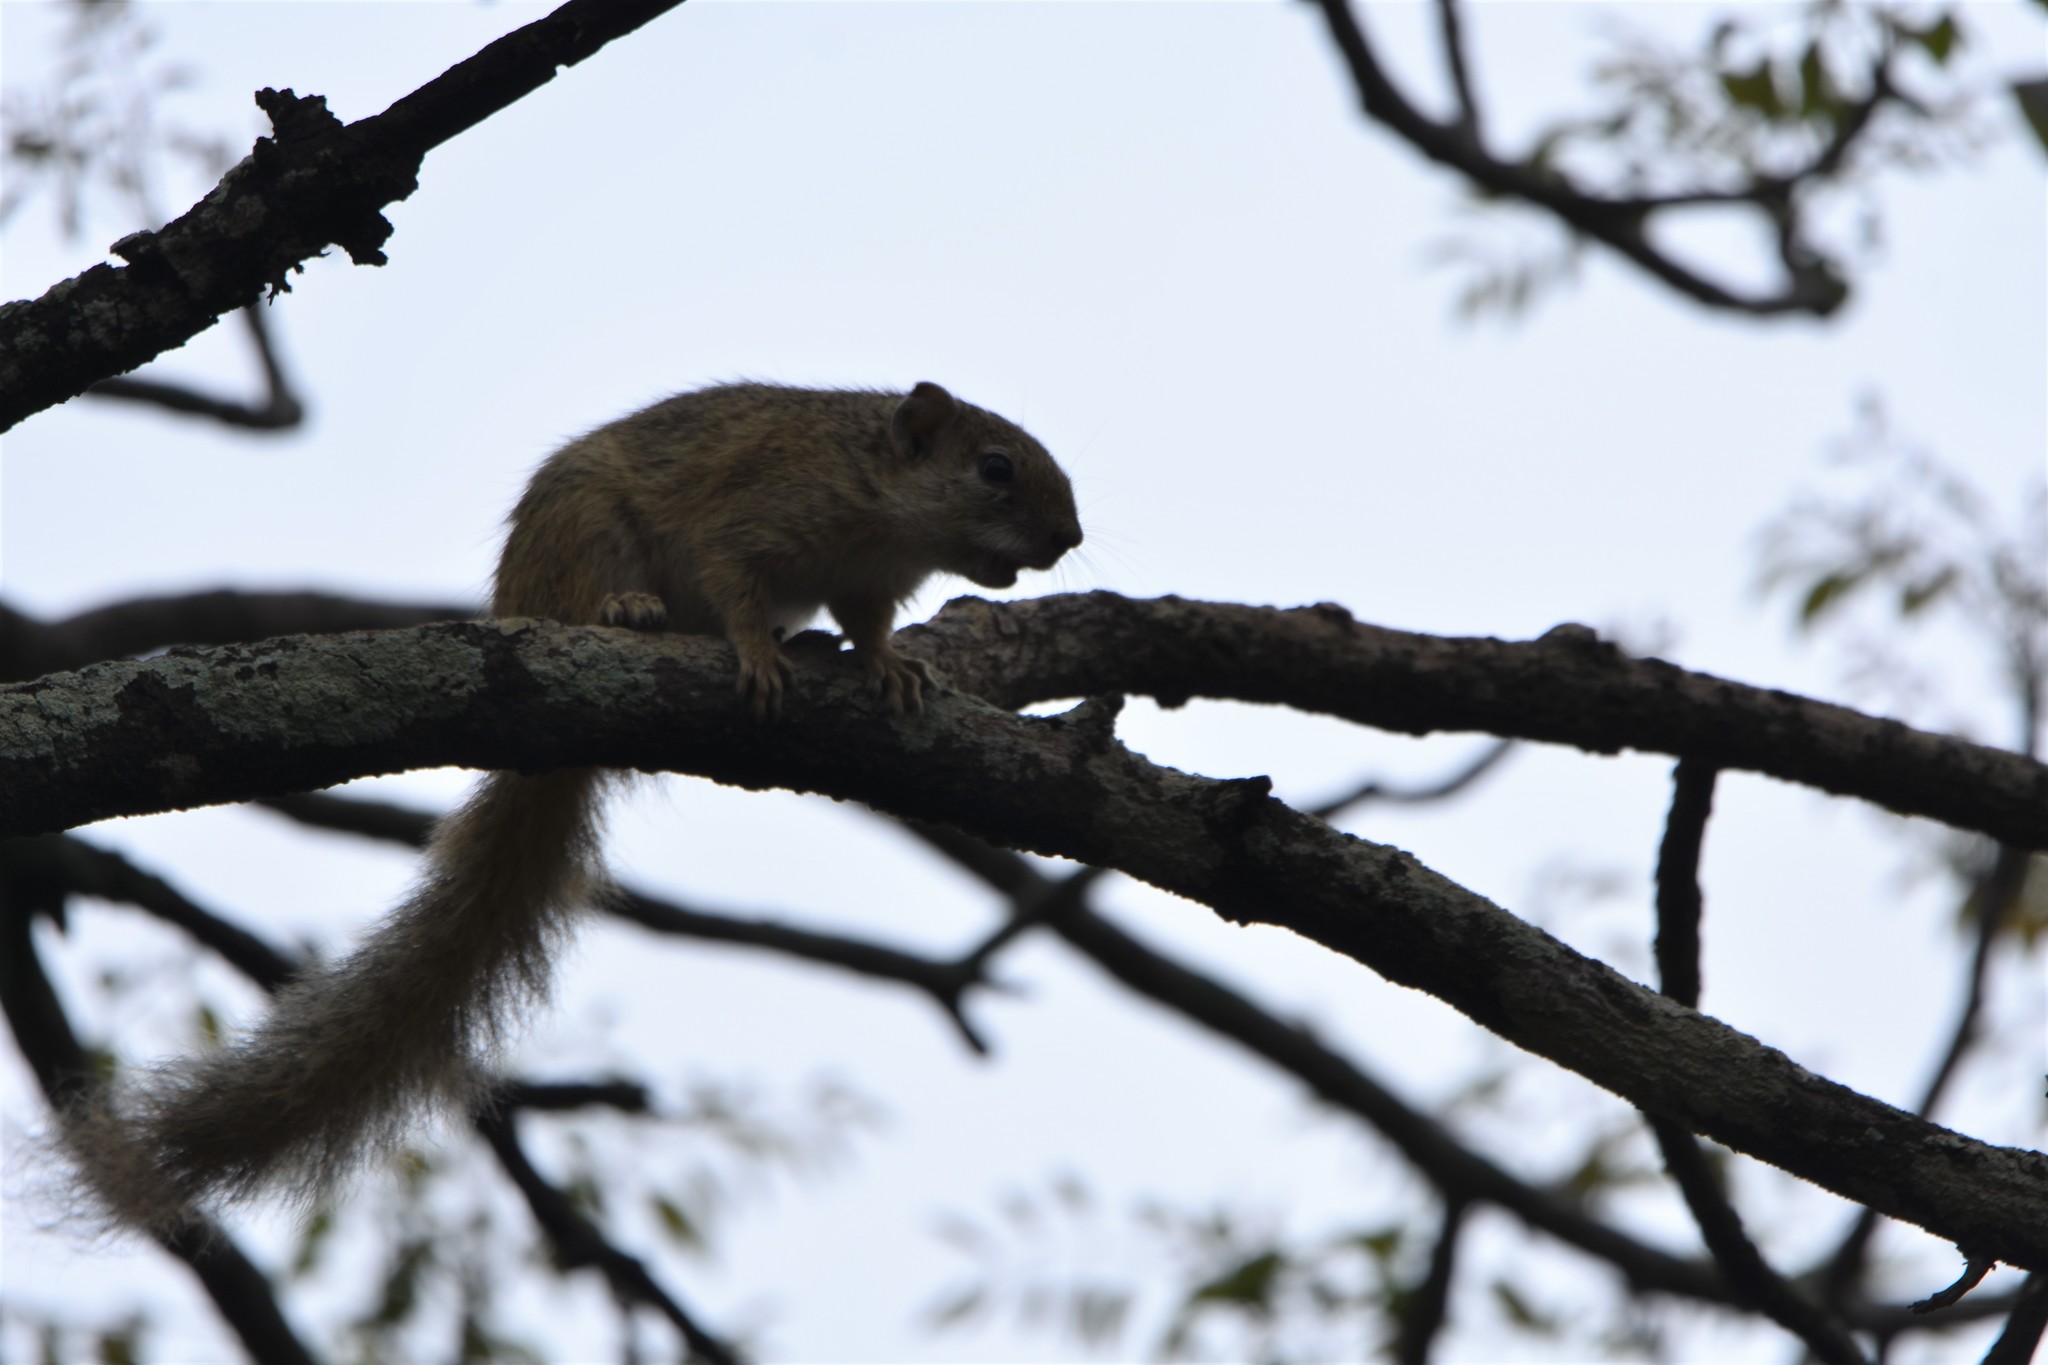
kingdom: Animalia
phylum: Chordata
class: Mammalia
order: Rodentia
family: Sciuridae
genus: Paraxerus
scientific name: Paraxerus cepapi
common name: Smith's bush squirrel
